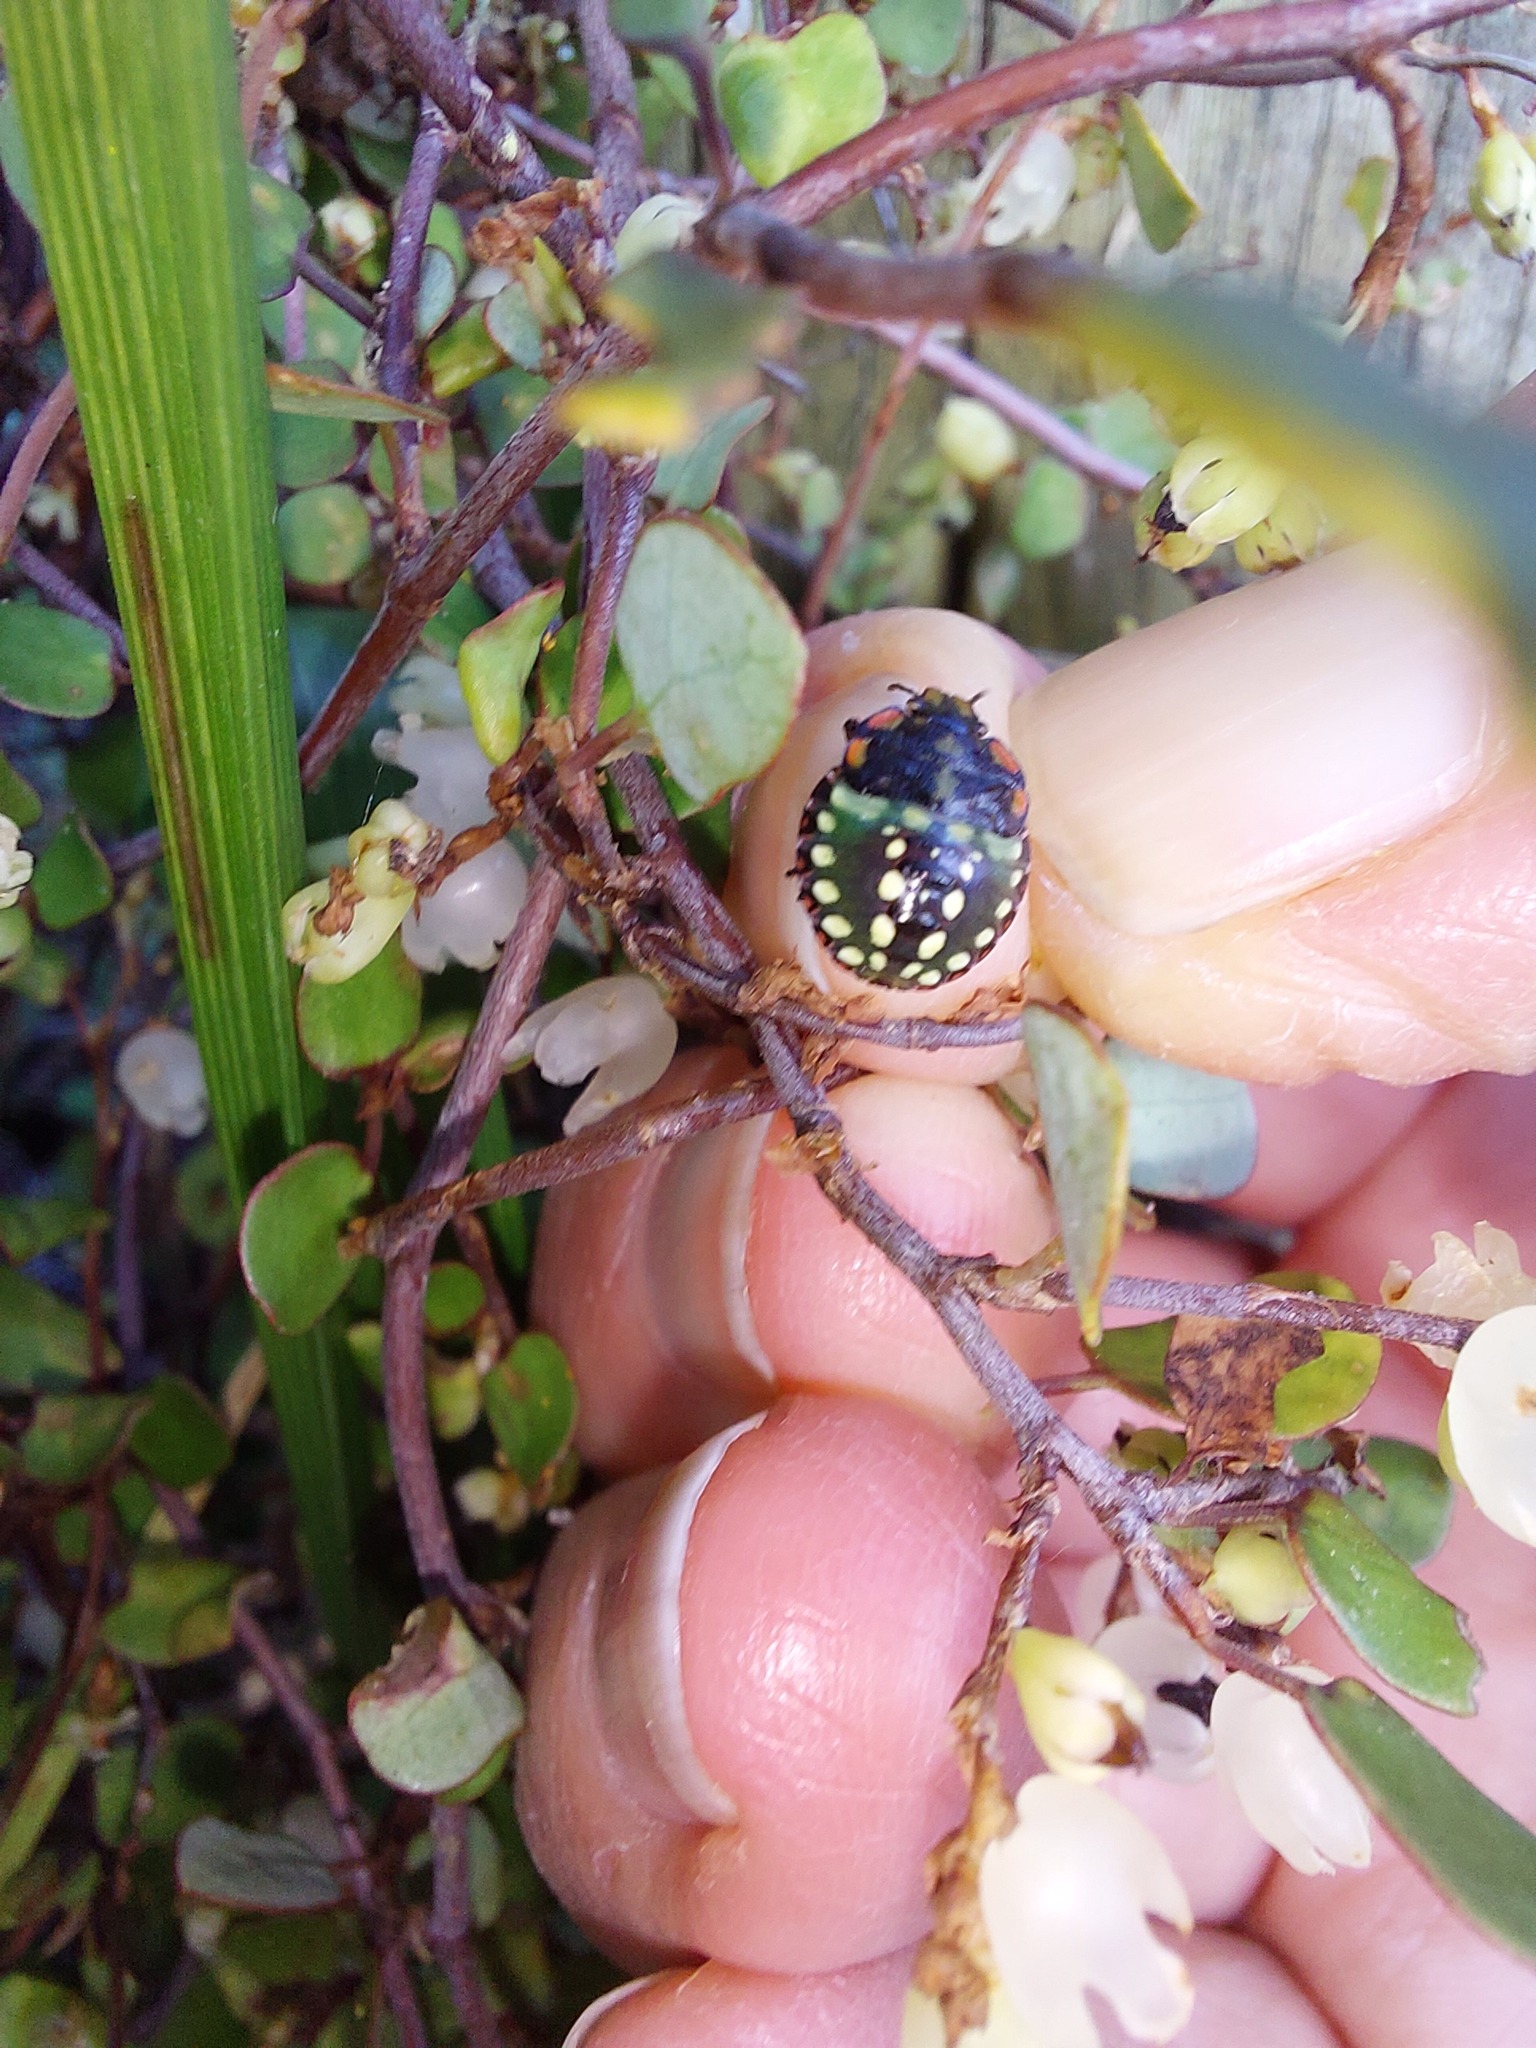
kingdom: Animalia
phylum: Arthropoda
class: Insecta
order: Hemiptera
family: Pentatomidae
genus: Nezara
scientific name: Nezara viridula
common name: Southern green stink bug
